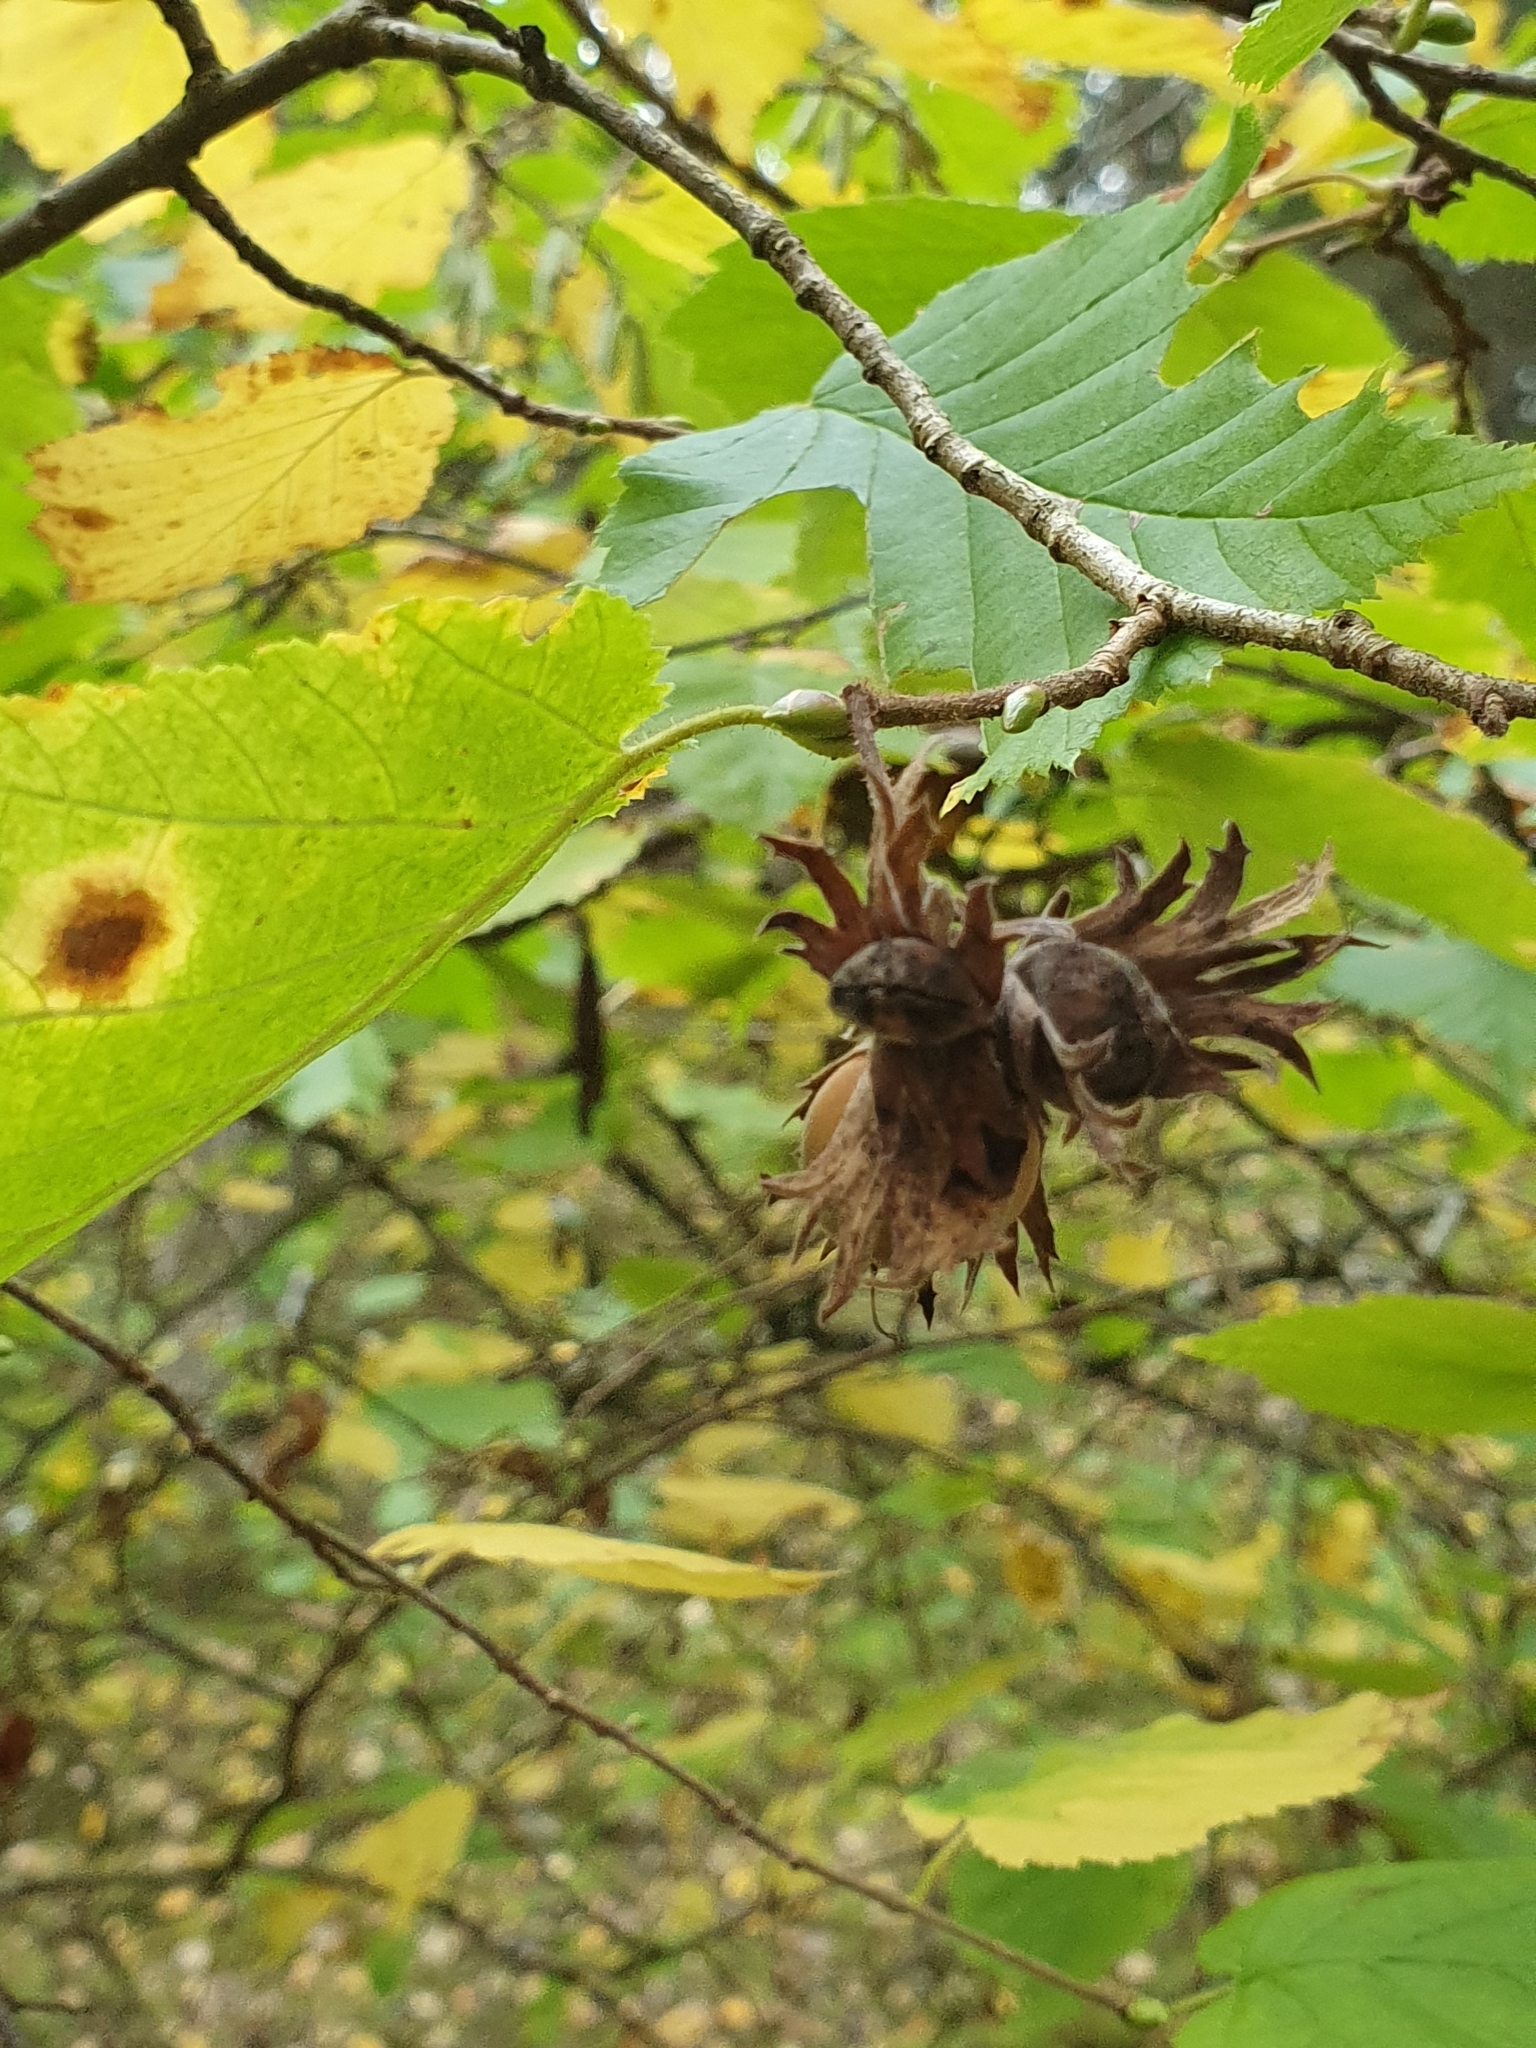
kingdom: Plantae
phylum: Tracheophyta
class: Magnoliopsida
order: Fagales
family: Betulaceae
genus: Corylus
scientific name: Corylus avellana
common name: European hazel
